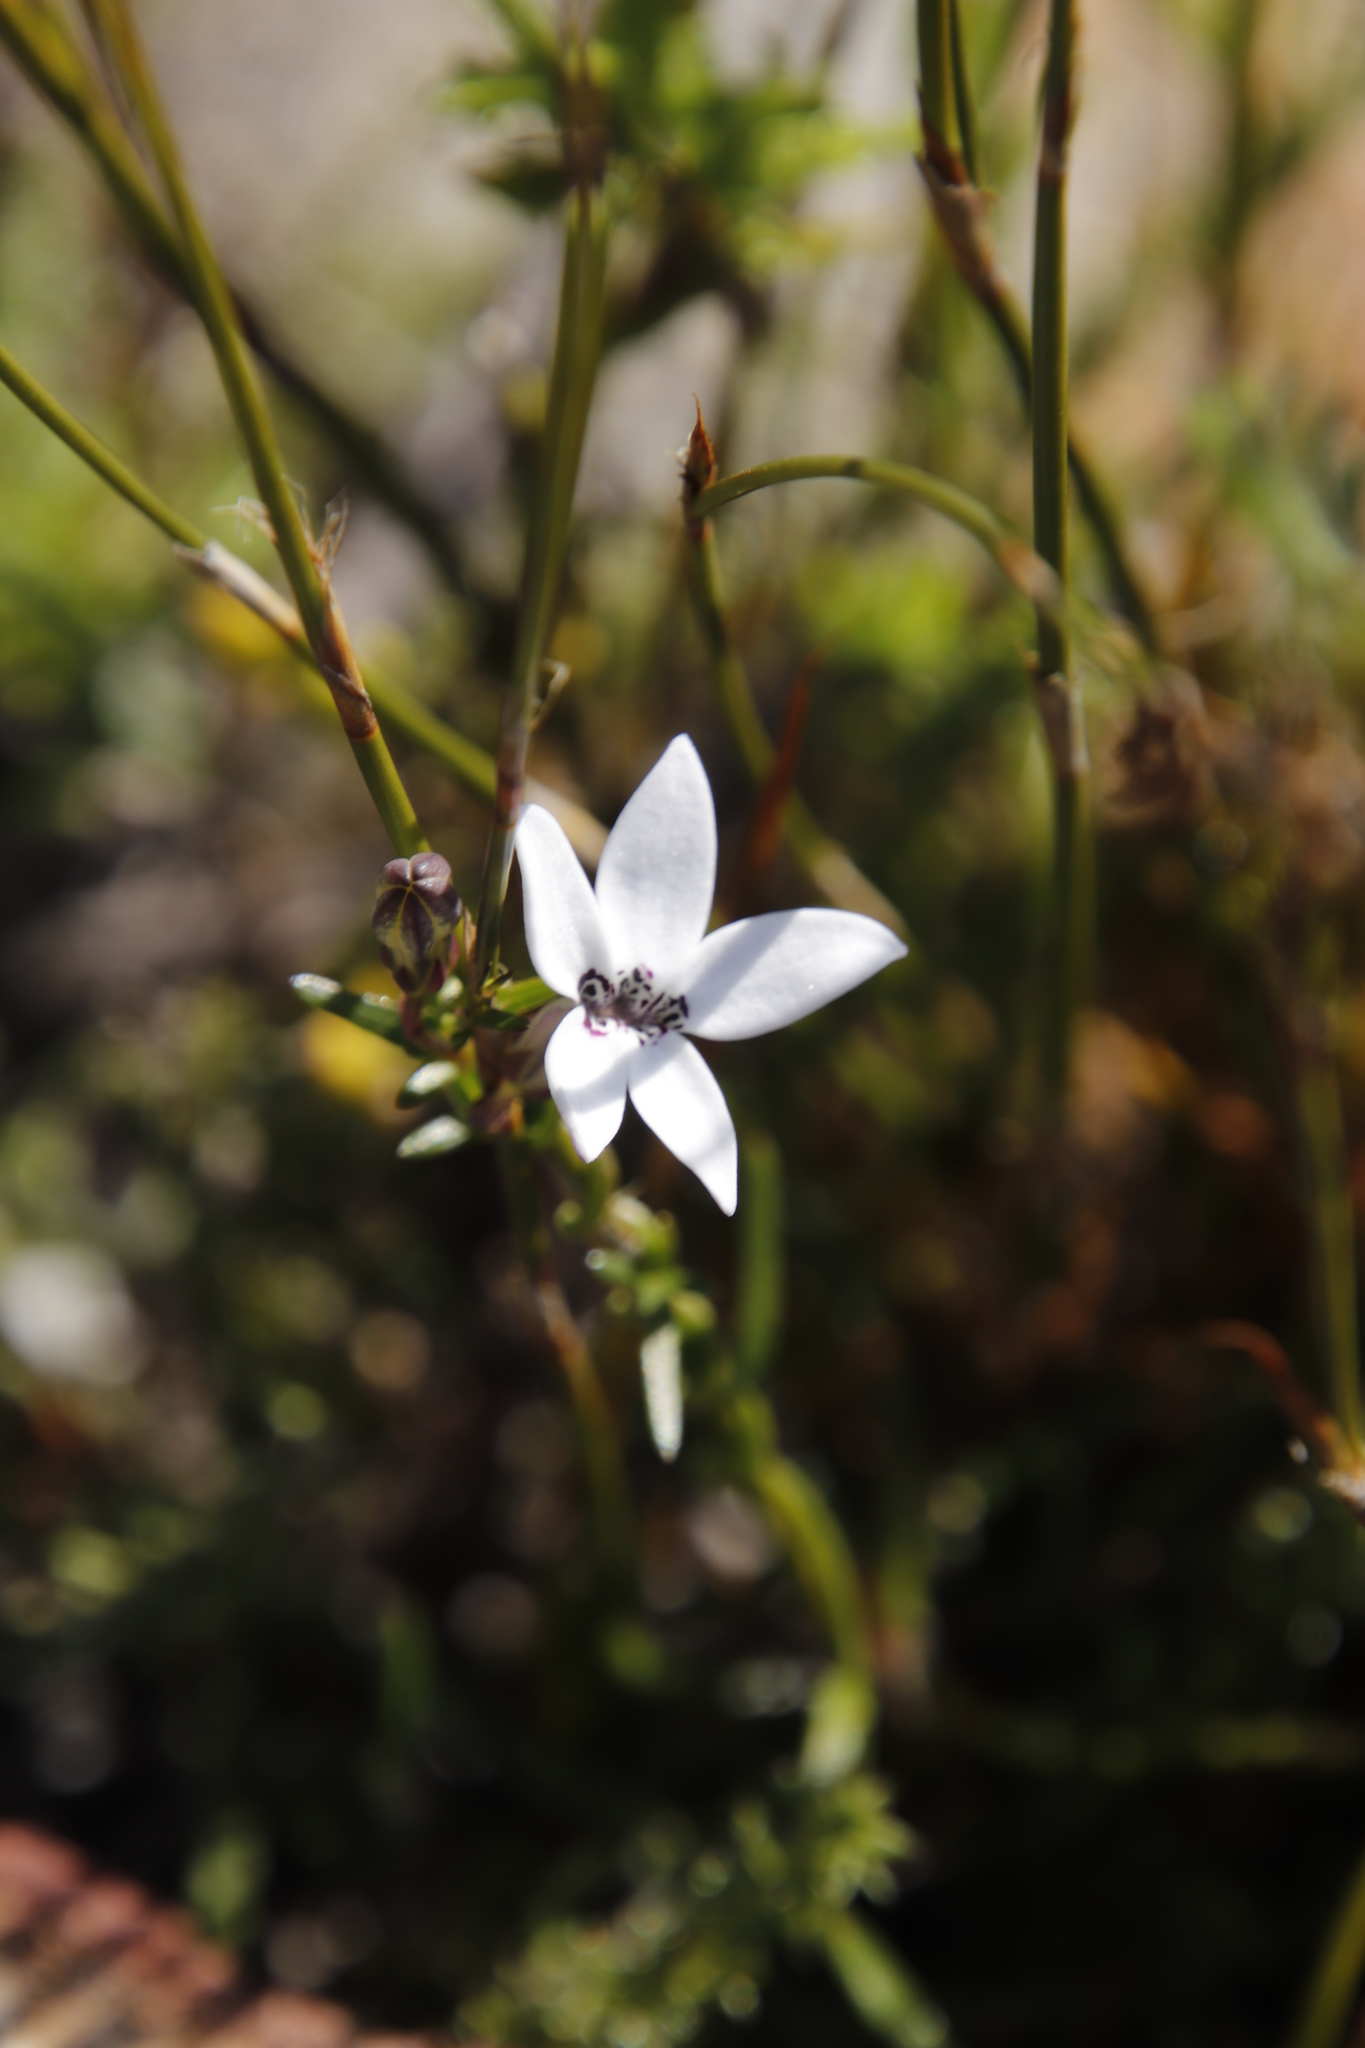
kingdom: Plantae
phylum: Tracheophyta
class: Magnoliopsida
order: Asterales
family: Campanulaceae
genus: Cyphia
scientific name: Cyphia volubilis
